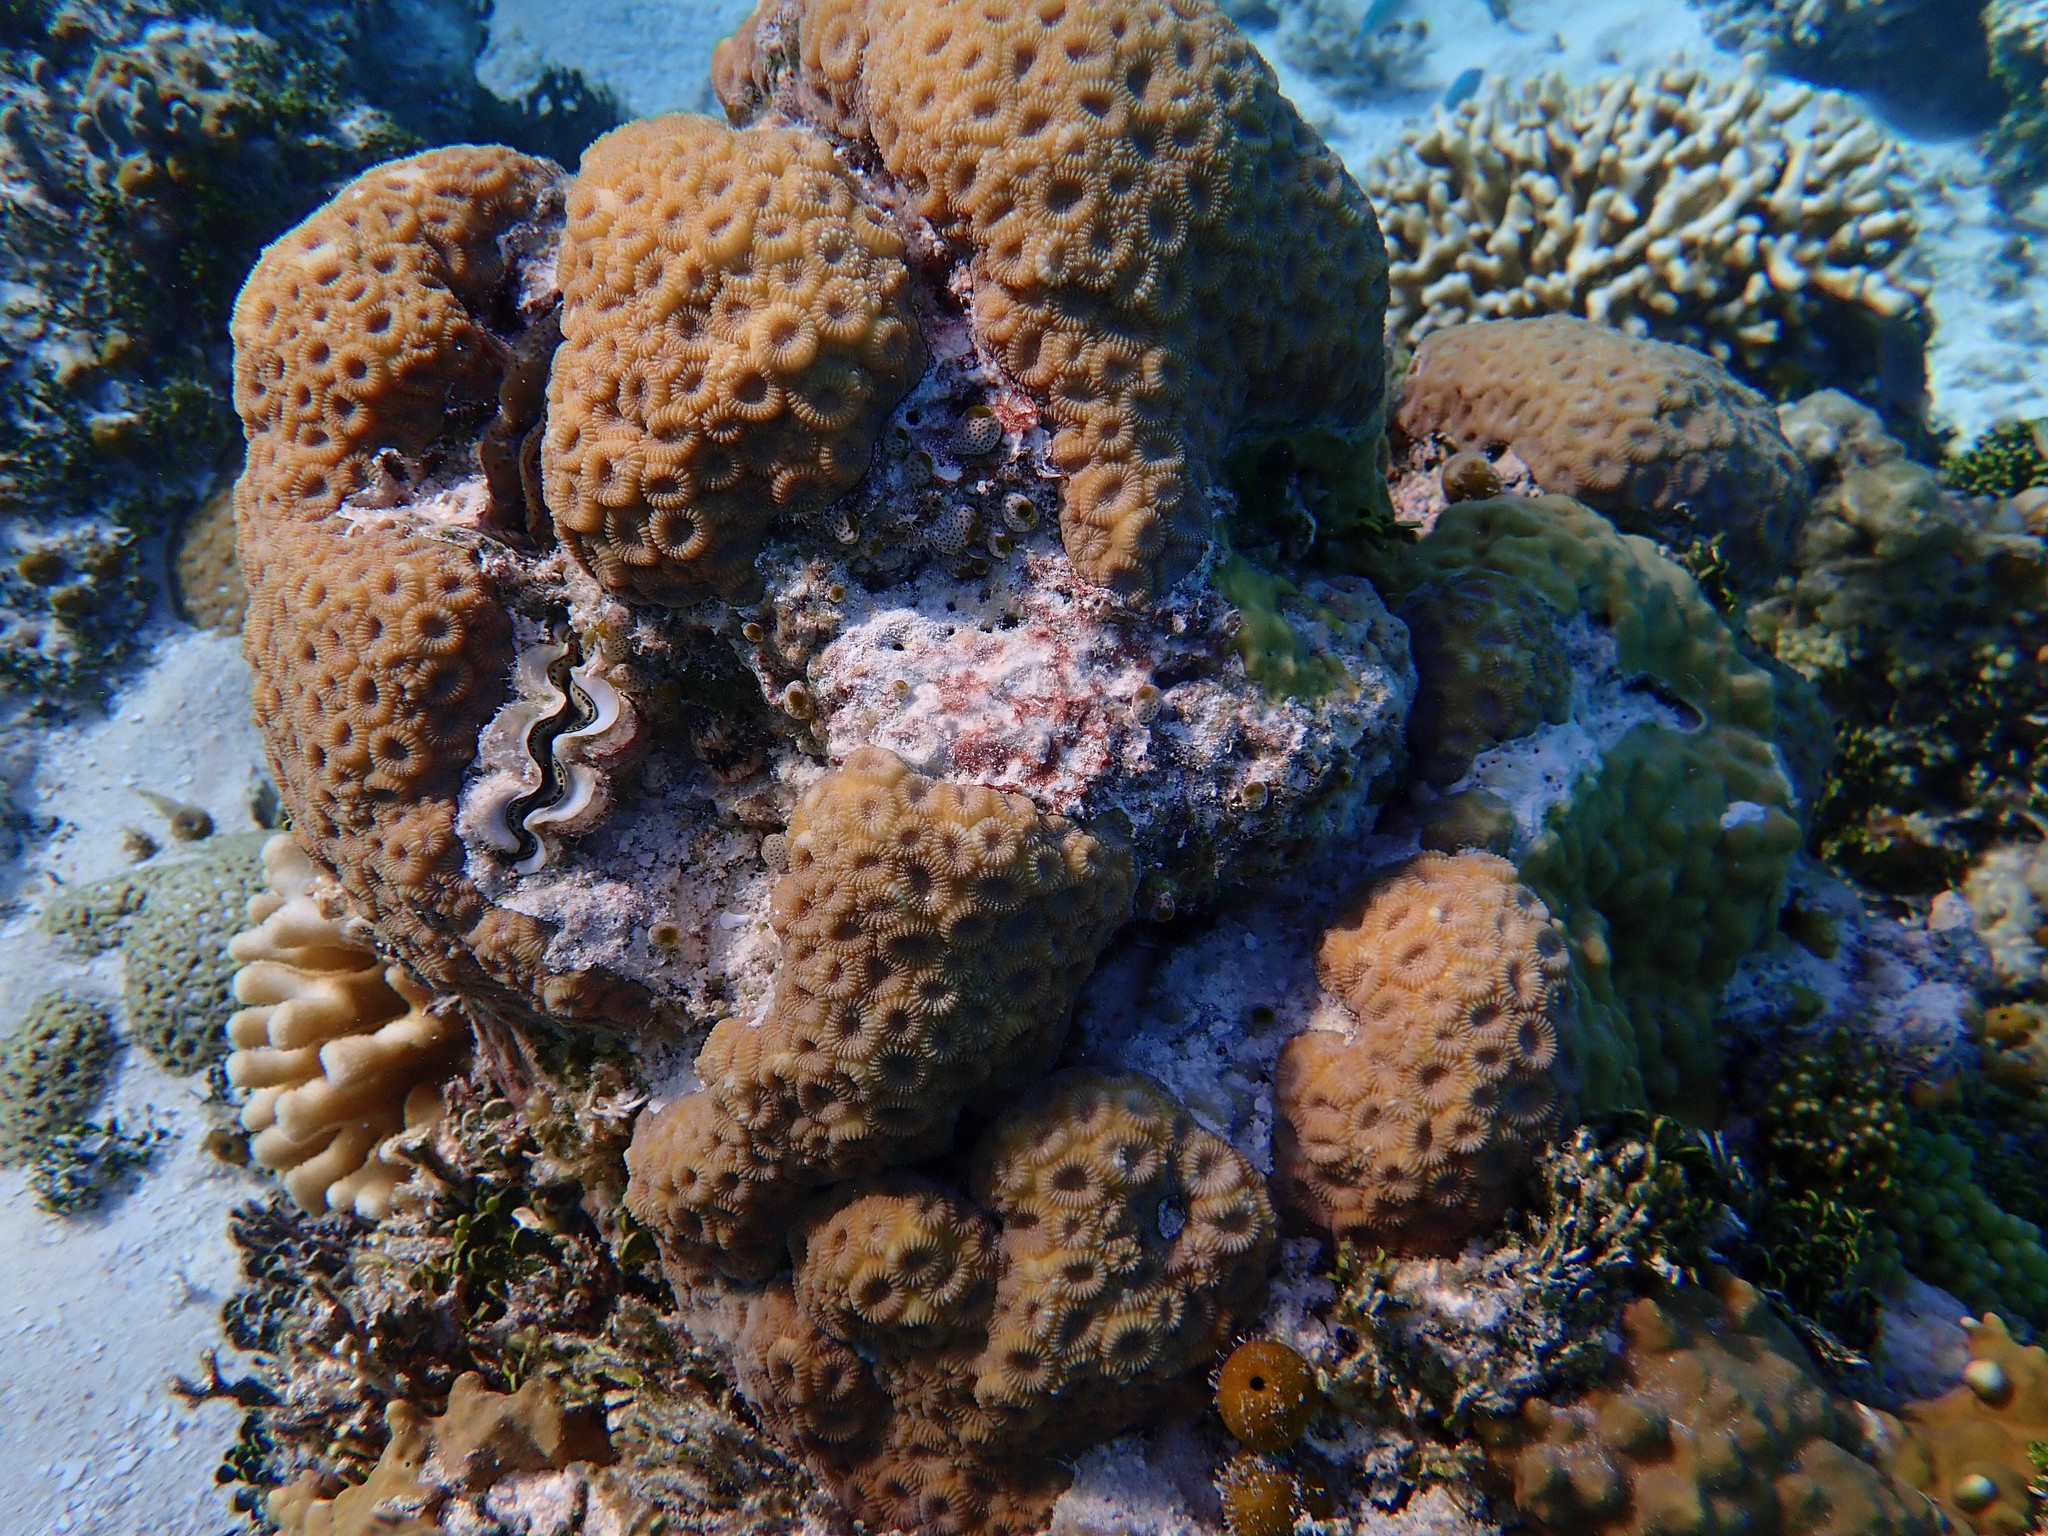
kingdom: Animalia
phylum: Cnidaria
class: Anthozoa
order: Scleractinia
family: Merulinidae
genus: Favites
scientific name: Favites magnistellata
